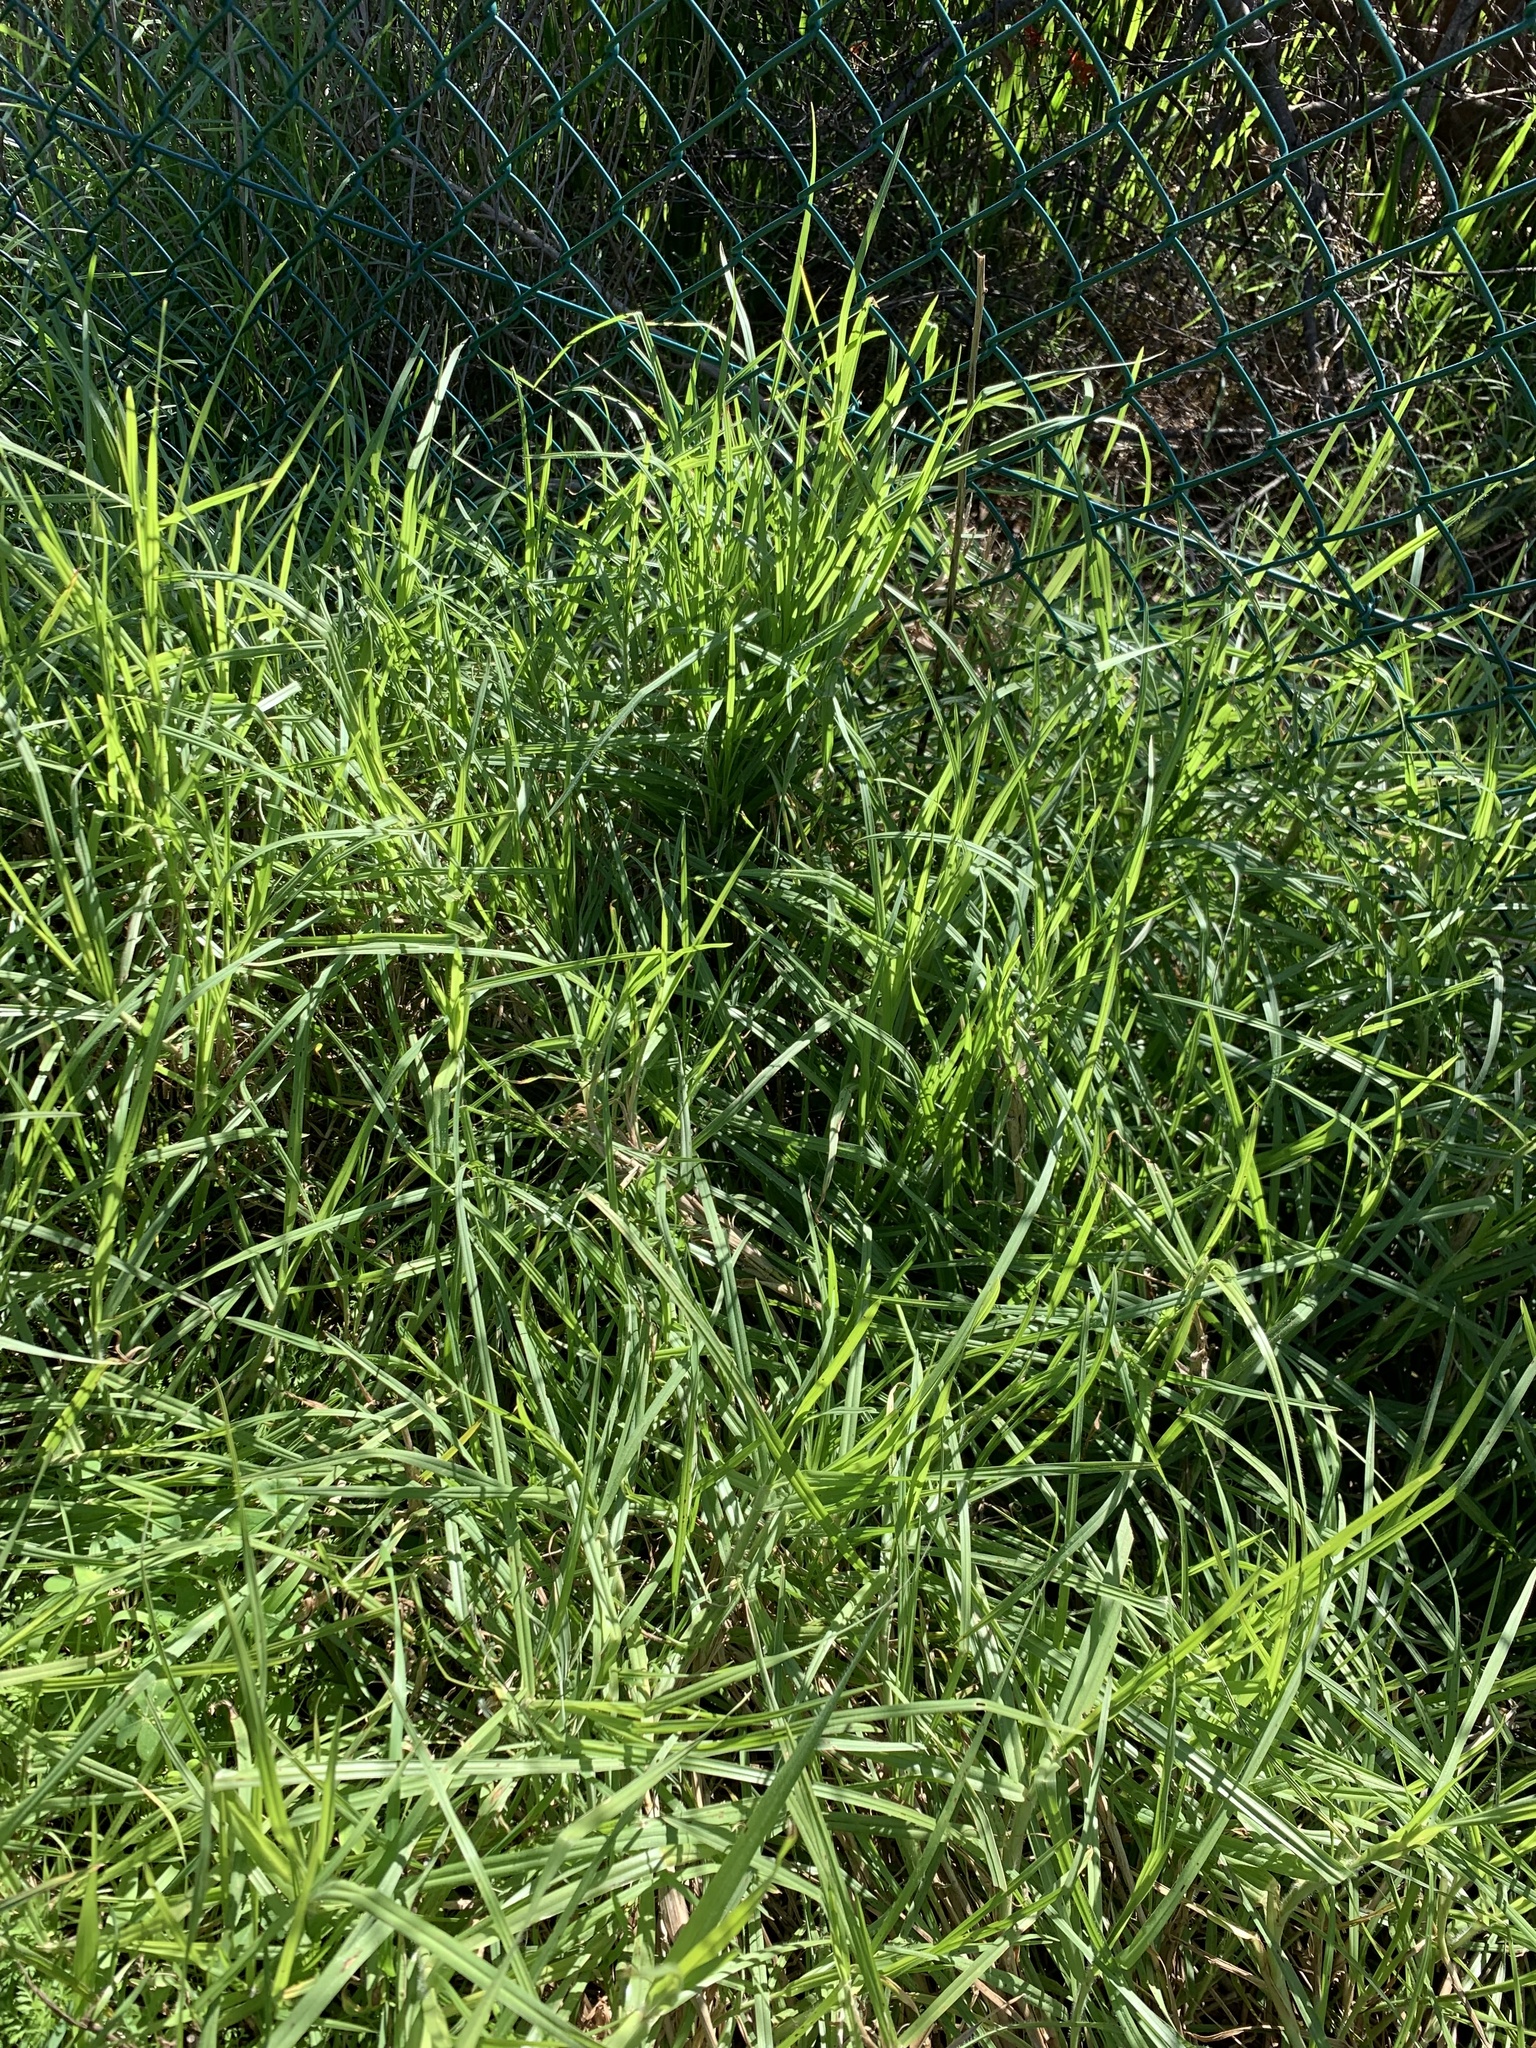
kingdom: Plantae
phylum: Tracheophyta
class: Liliopsida
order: Poales
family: Poaceae
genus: Cenchrus
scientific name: Cenchrus clandestinus
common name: Kikuyugrass
